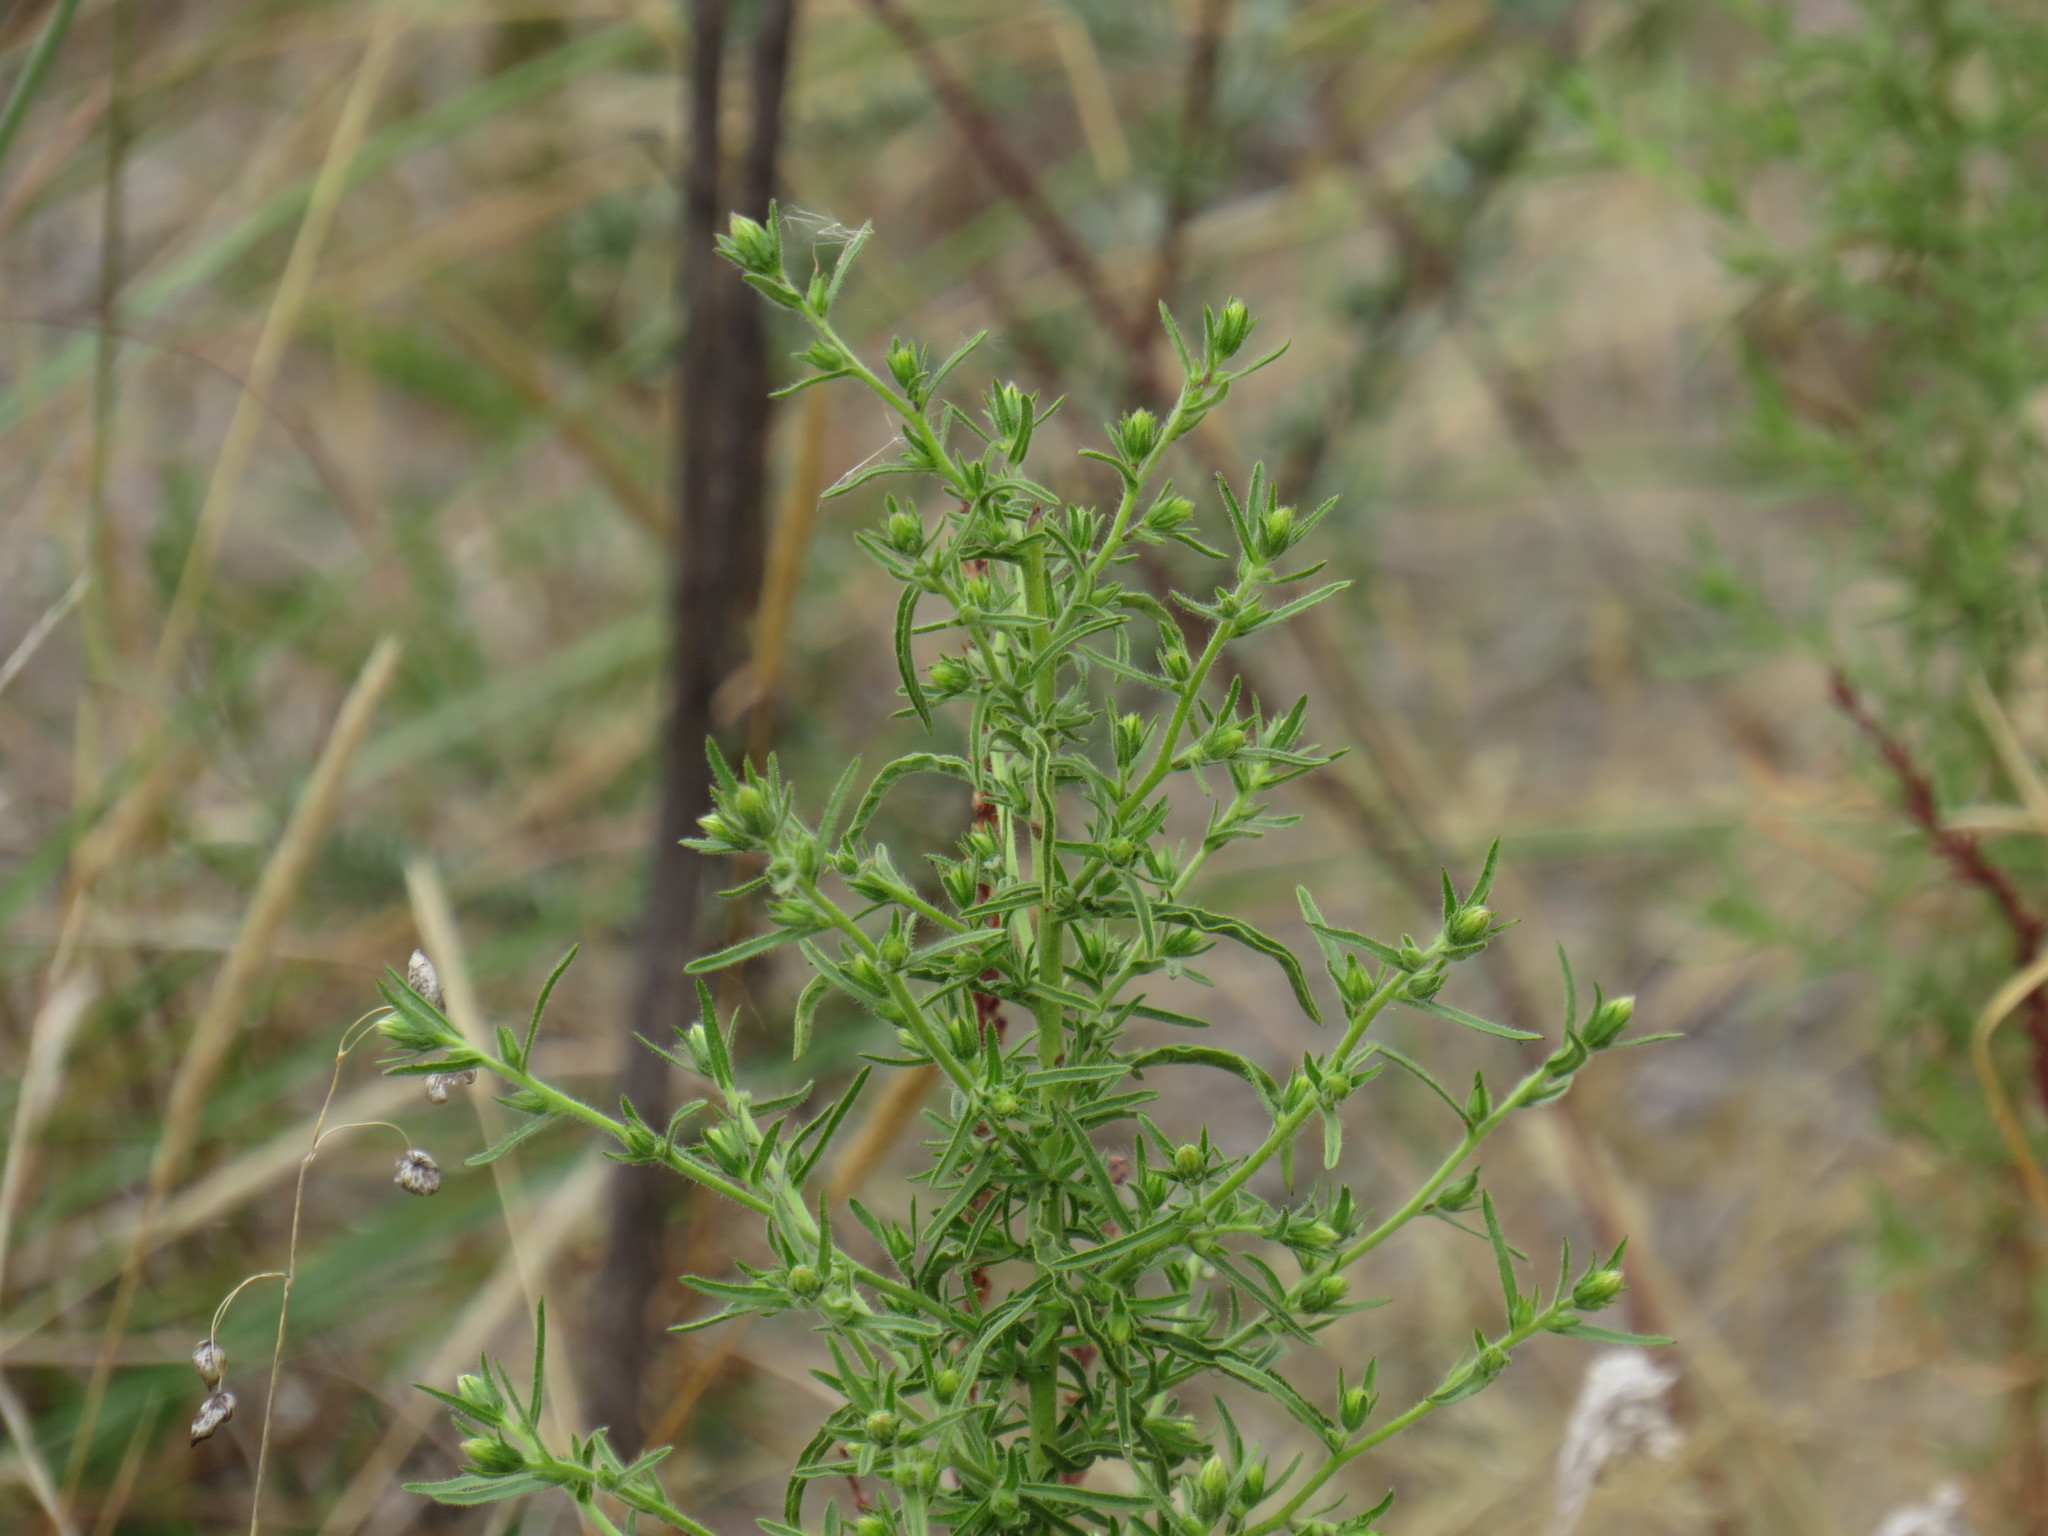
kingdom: Plantae
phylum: Tracheophyta
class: Magnoliopsida
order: Asterales
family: Asteraceae
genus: Dittrichia
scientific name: Dittrichia graveolens
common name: Stinking fleabane
